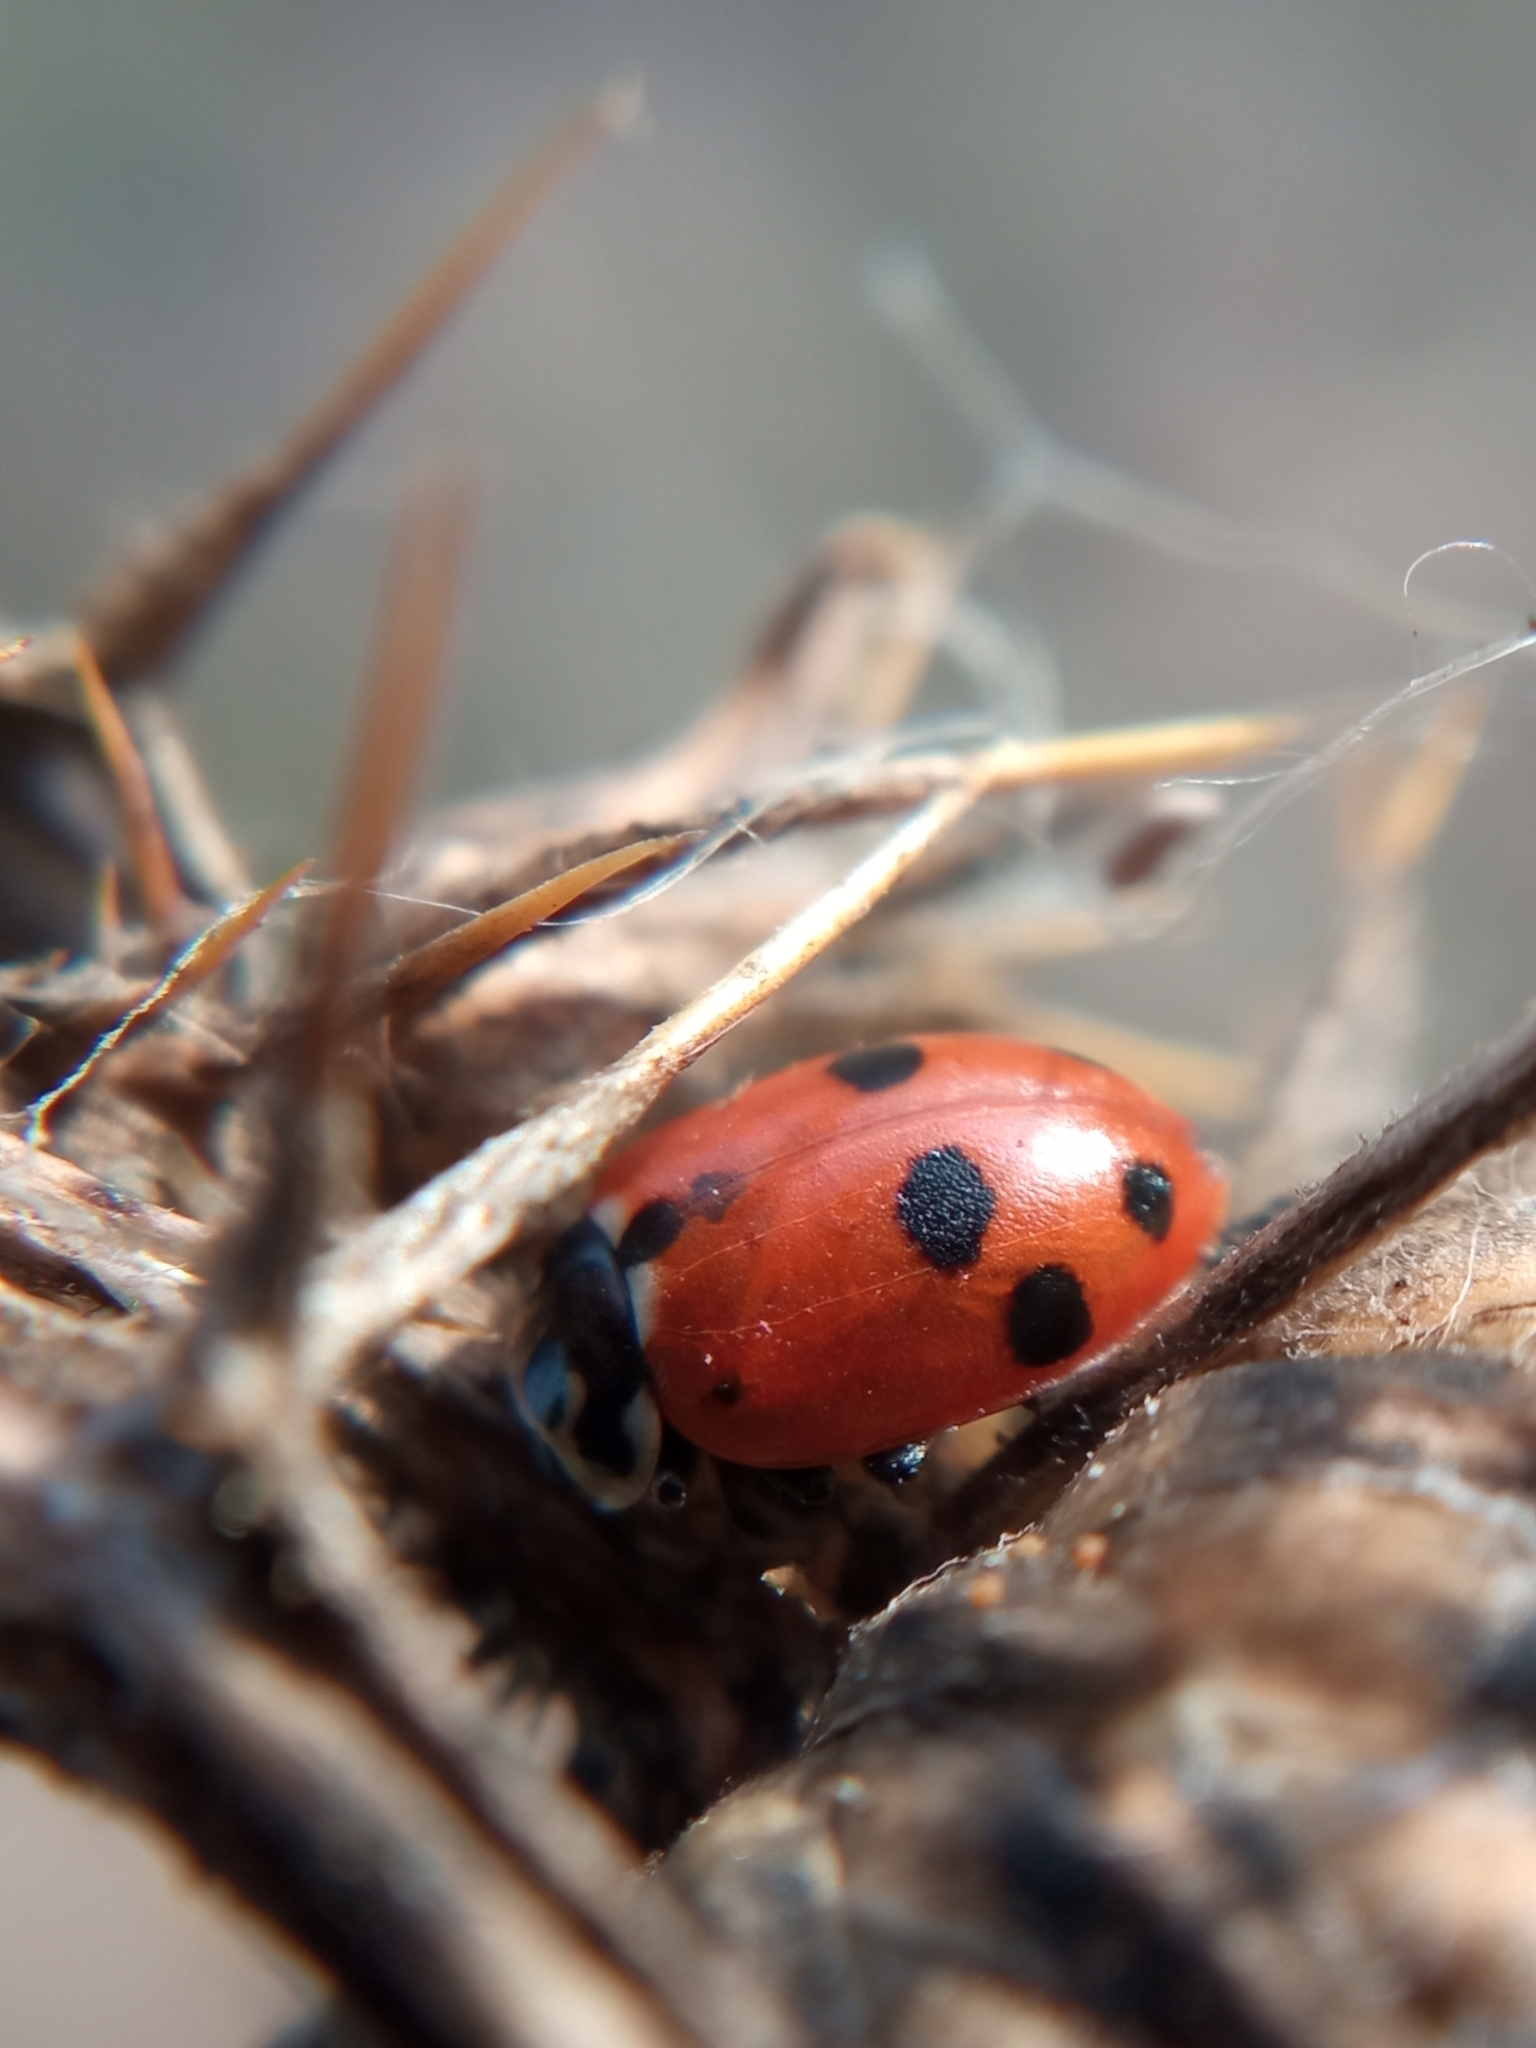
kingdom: Animalia
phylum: Arthropoda
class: Insecta
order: Coleoptera
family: Coccinellidae
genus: Hippodamia
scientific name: Hippodamia variegata
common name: Ladybird beetle
